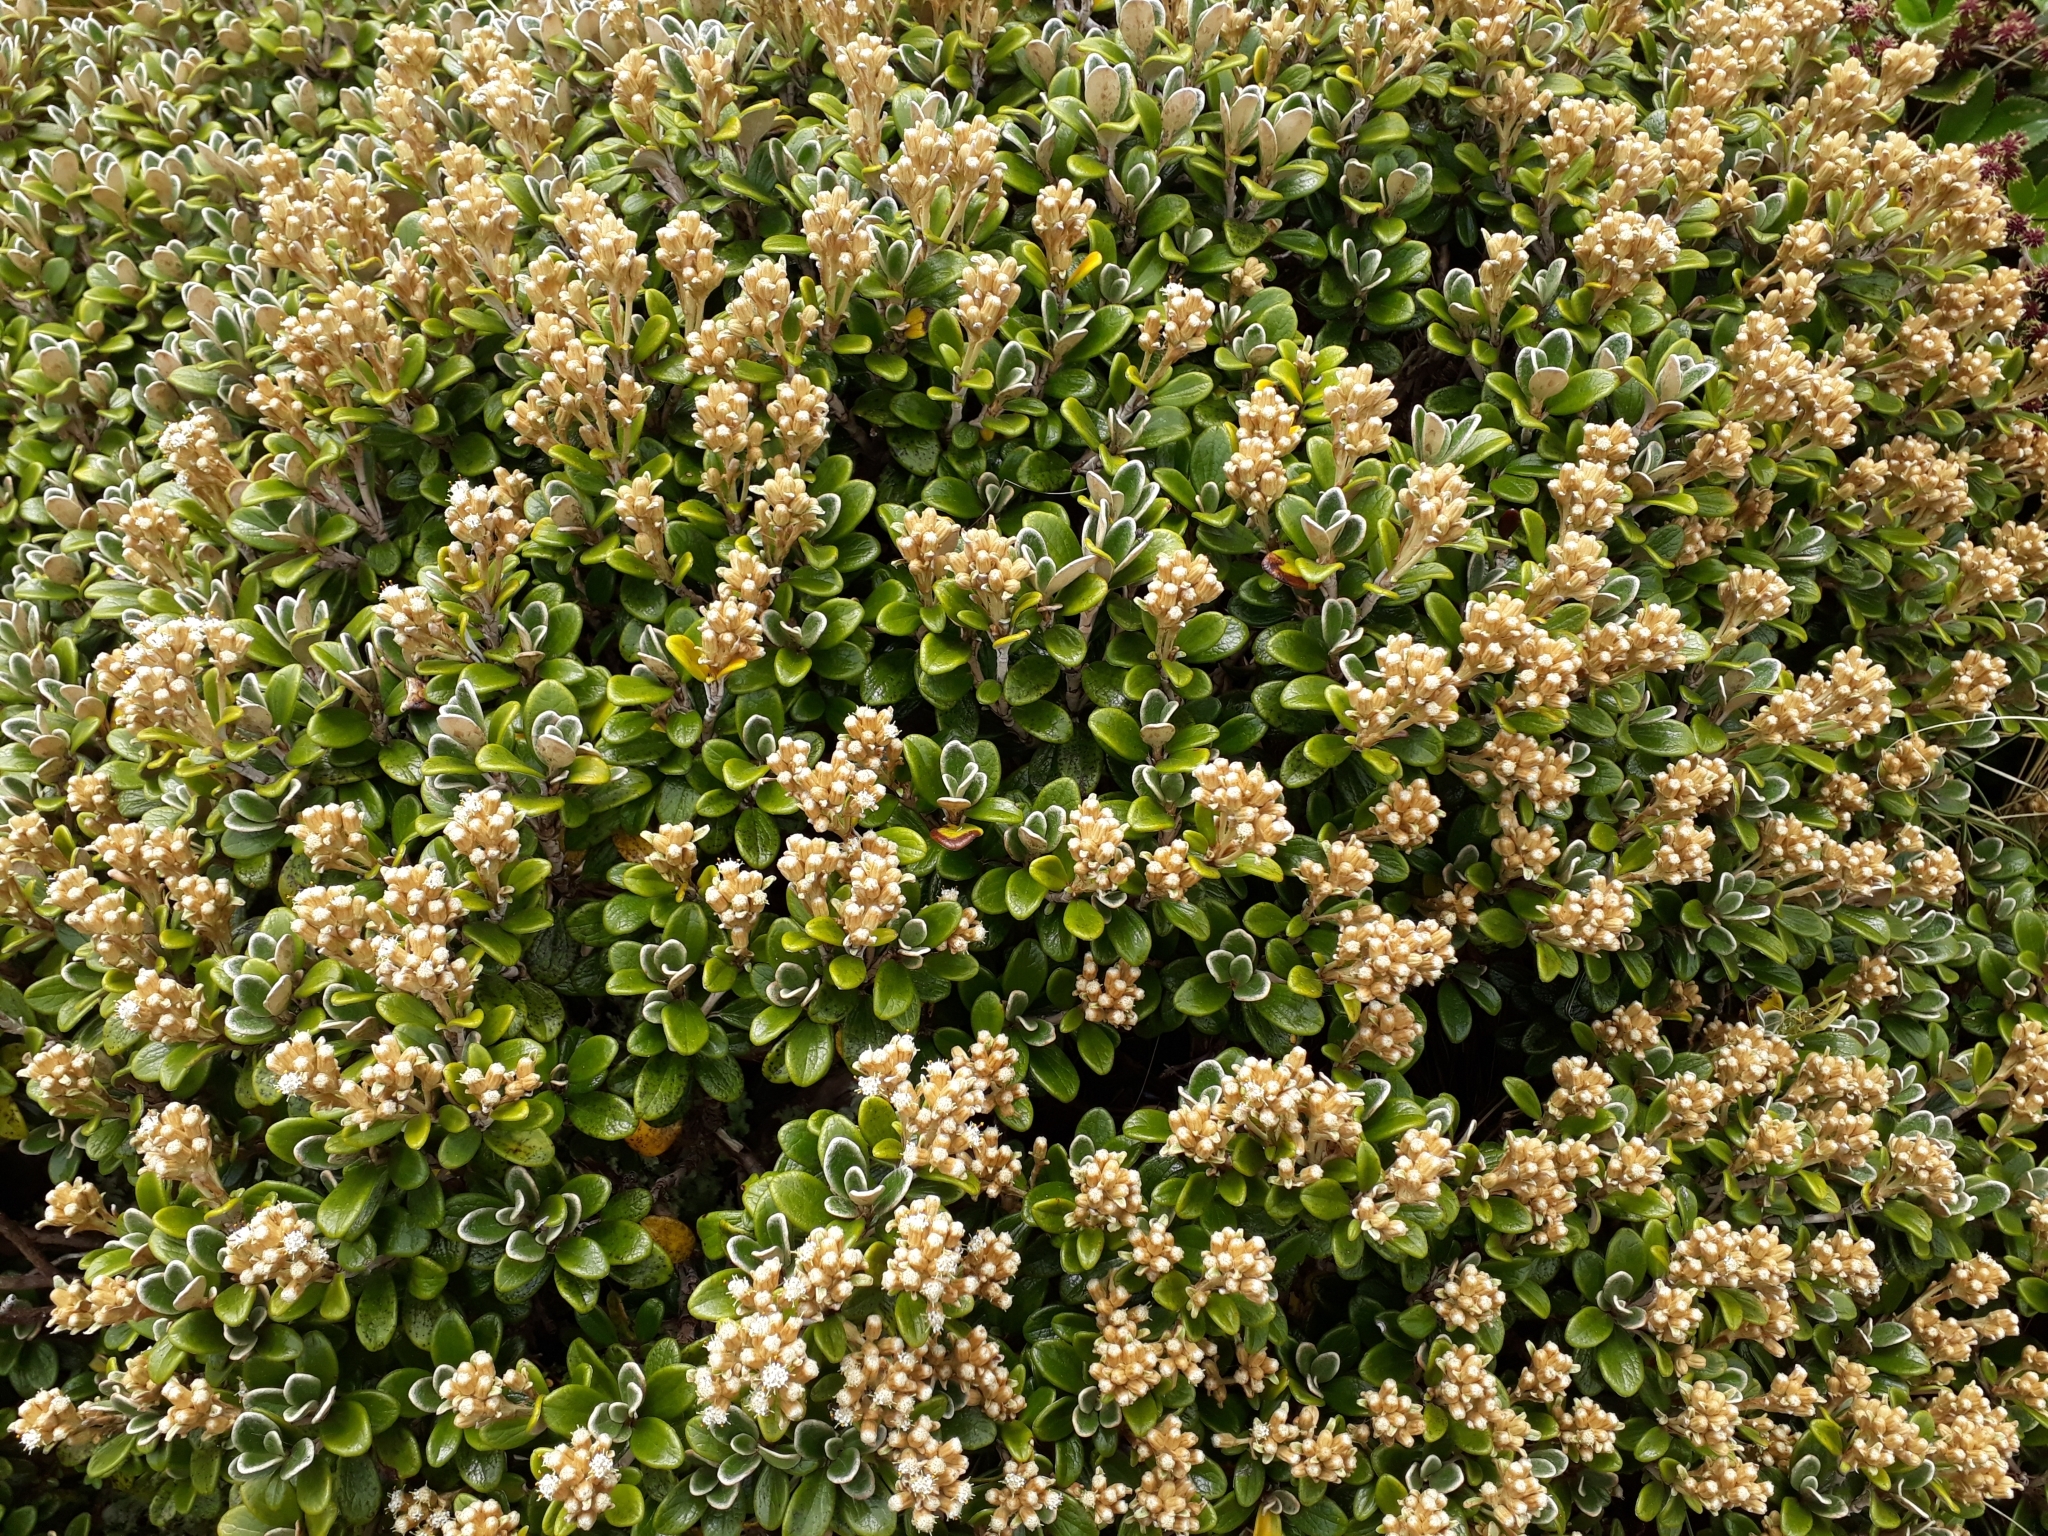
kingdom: Plantae
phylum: Tracheophyta
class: Magnoliopsida
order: Asterales
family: Asteraceae
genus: Brachyglottis
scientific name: Brachyglottis bidwillii
